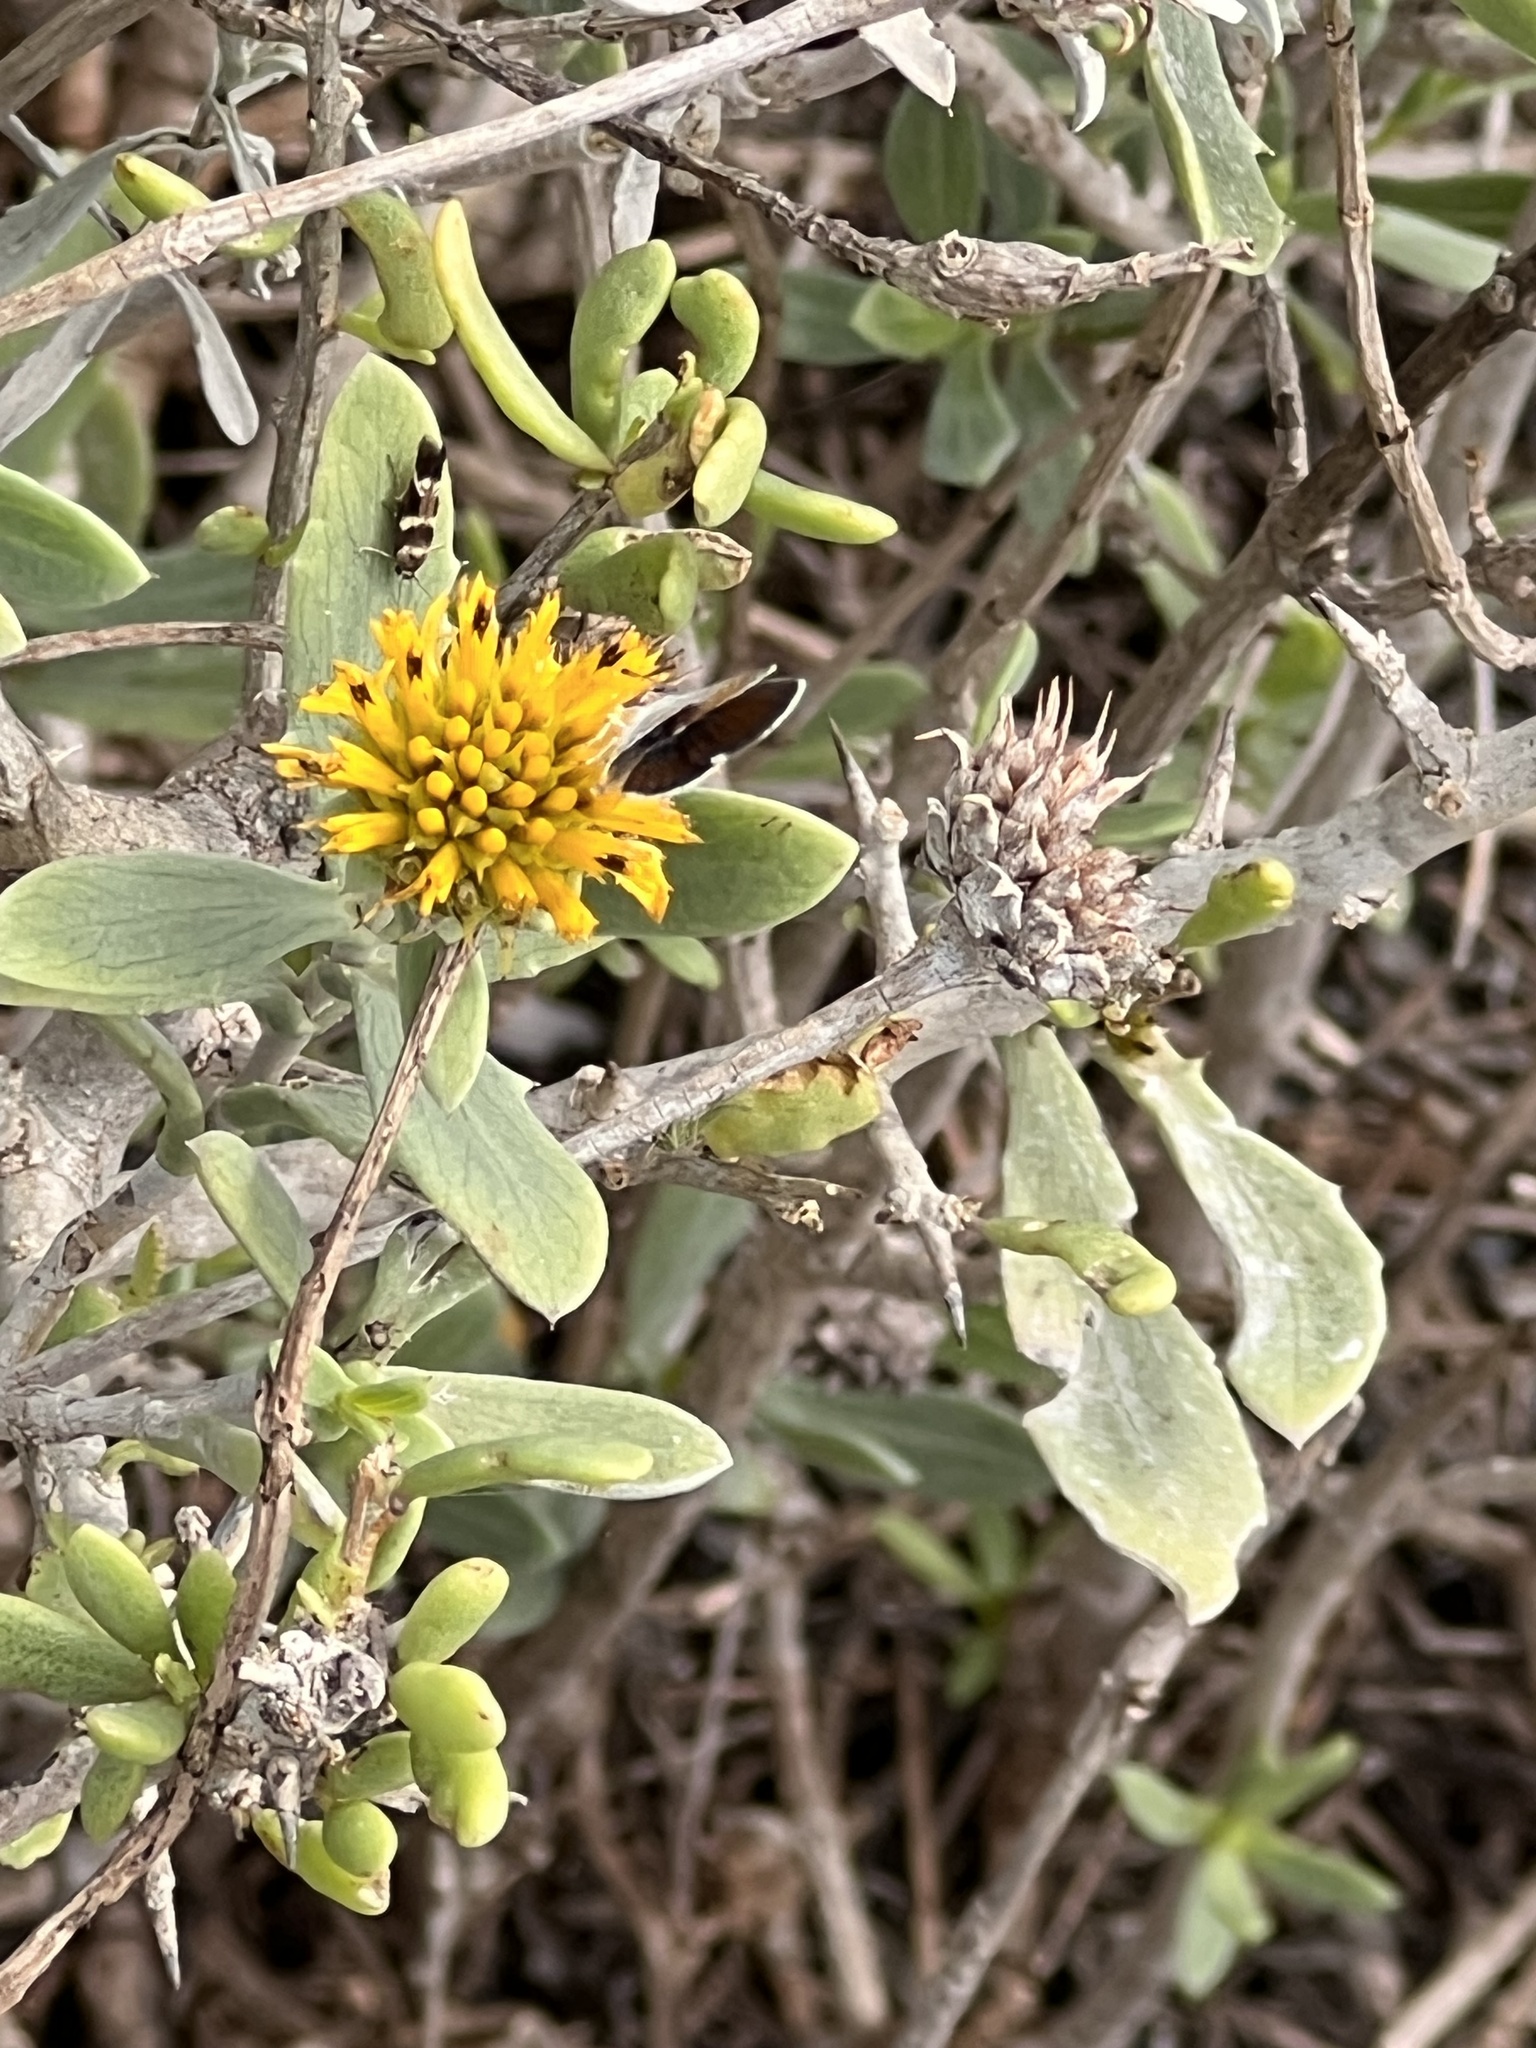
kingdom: Plantae
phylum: Tracheophyta
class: Magnoliopsida
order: Asterales
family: Asteraceae
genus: Borrichia
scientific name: Borrichia frutescens
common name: Sea oxeye
